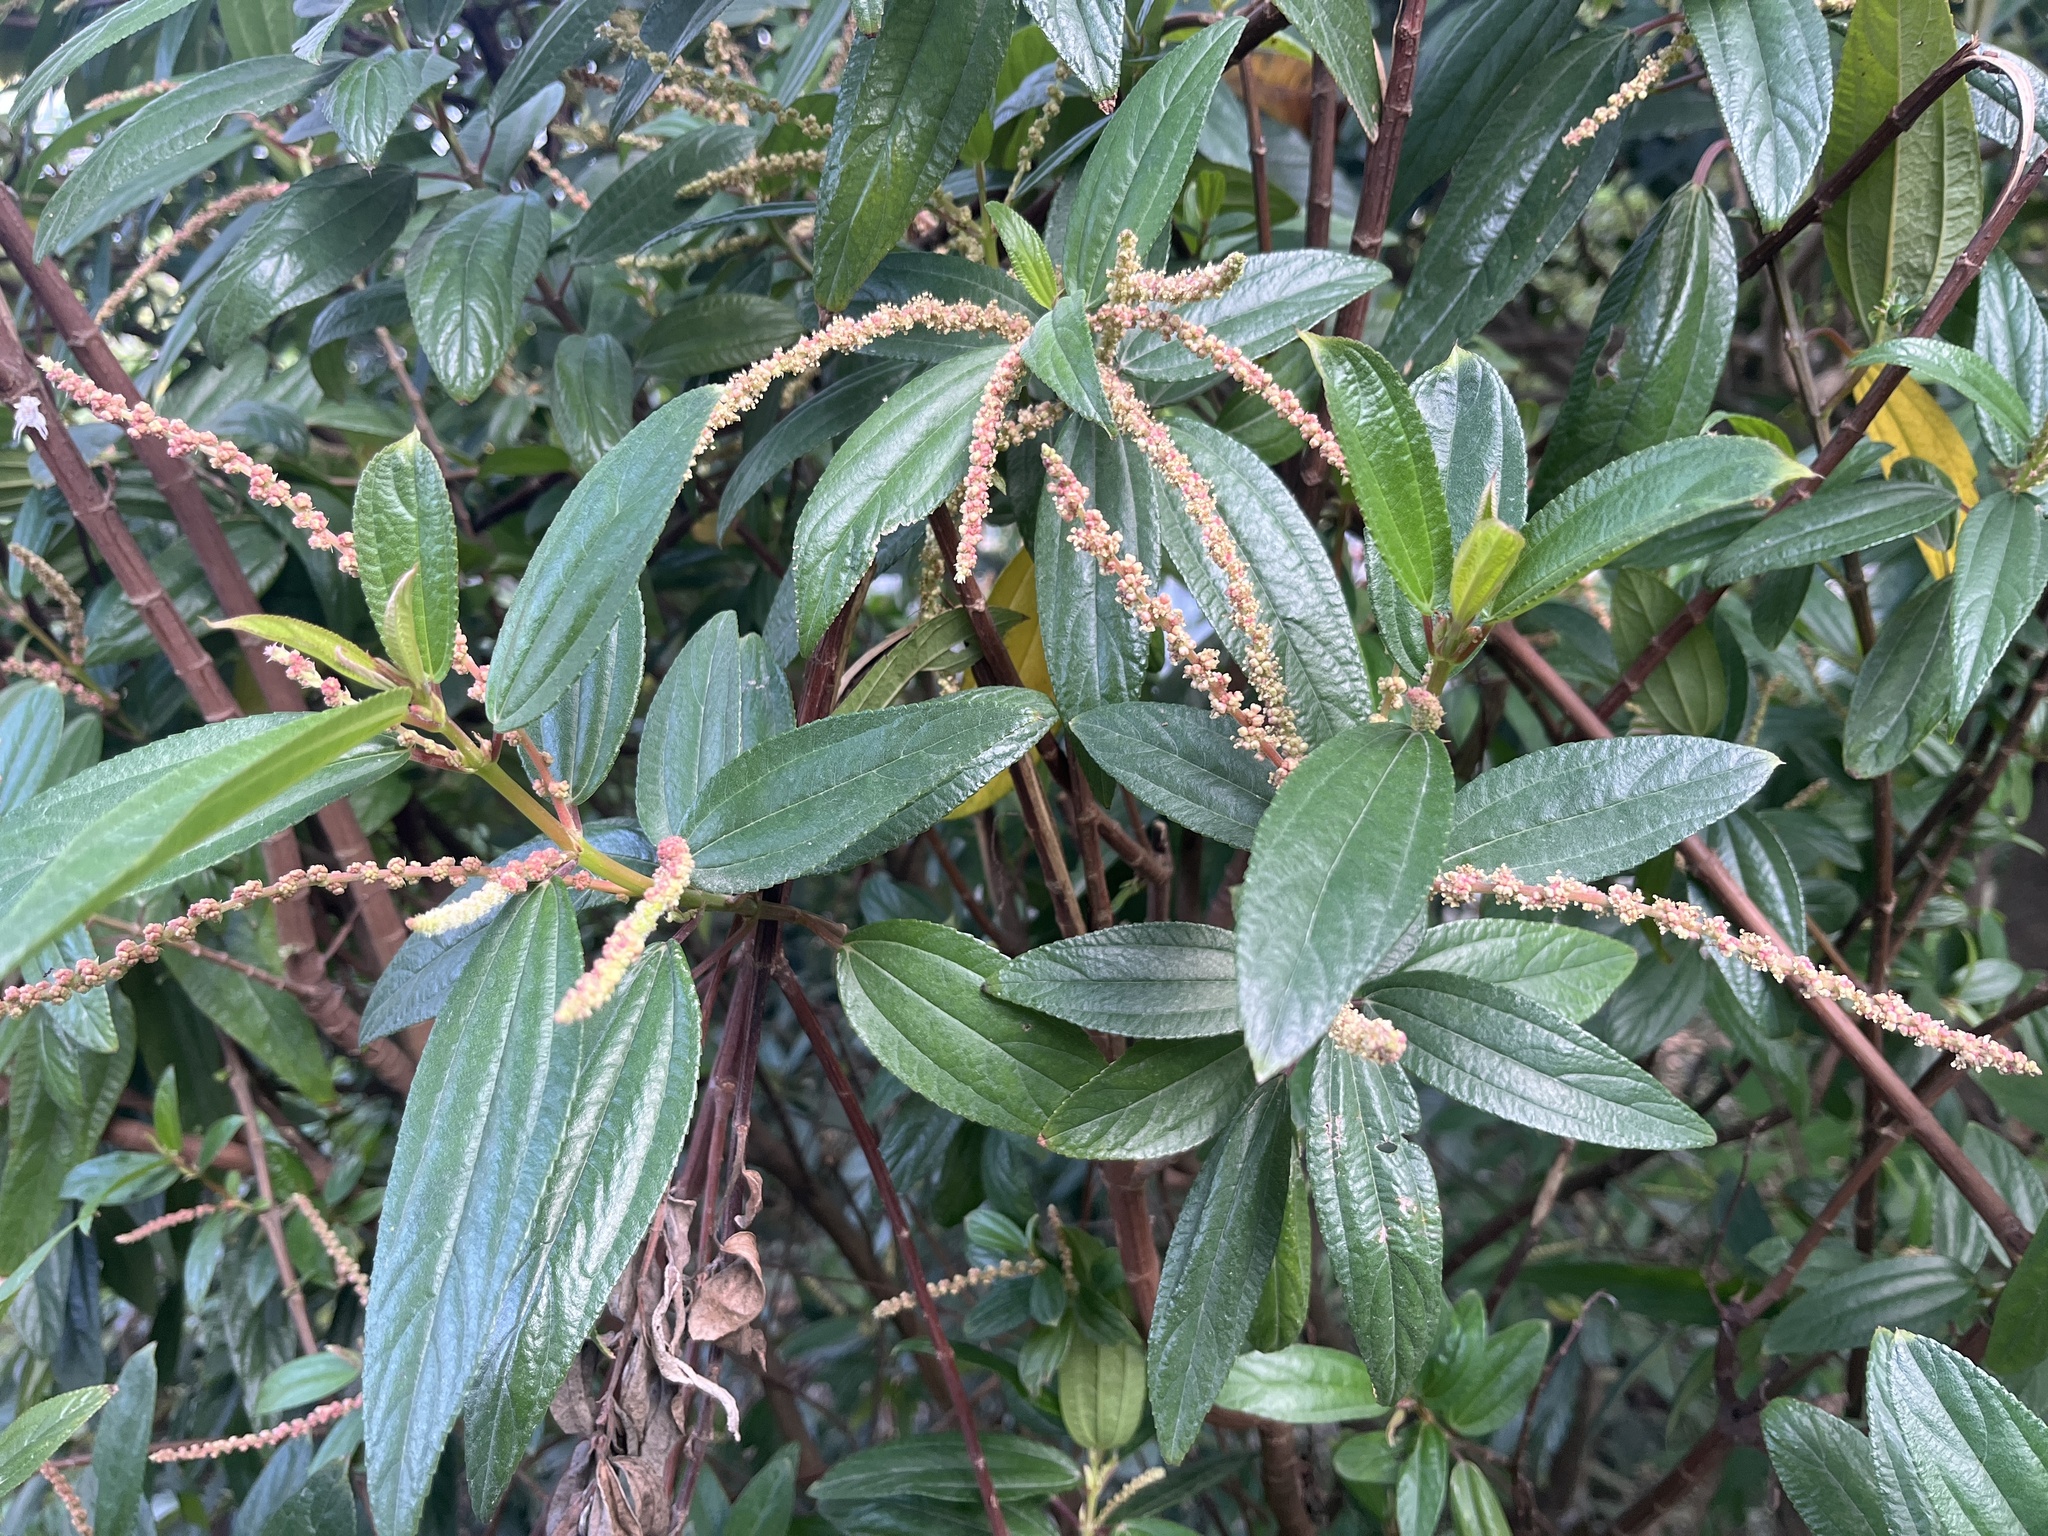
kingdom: Plantae
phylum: Tracheophyta
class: Magnoliopsida
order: Rosales
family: Urticaceae
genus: Boehmeria
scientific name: Boehmeria densiflora
